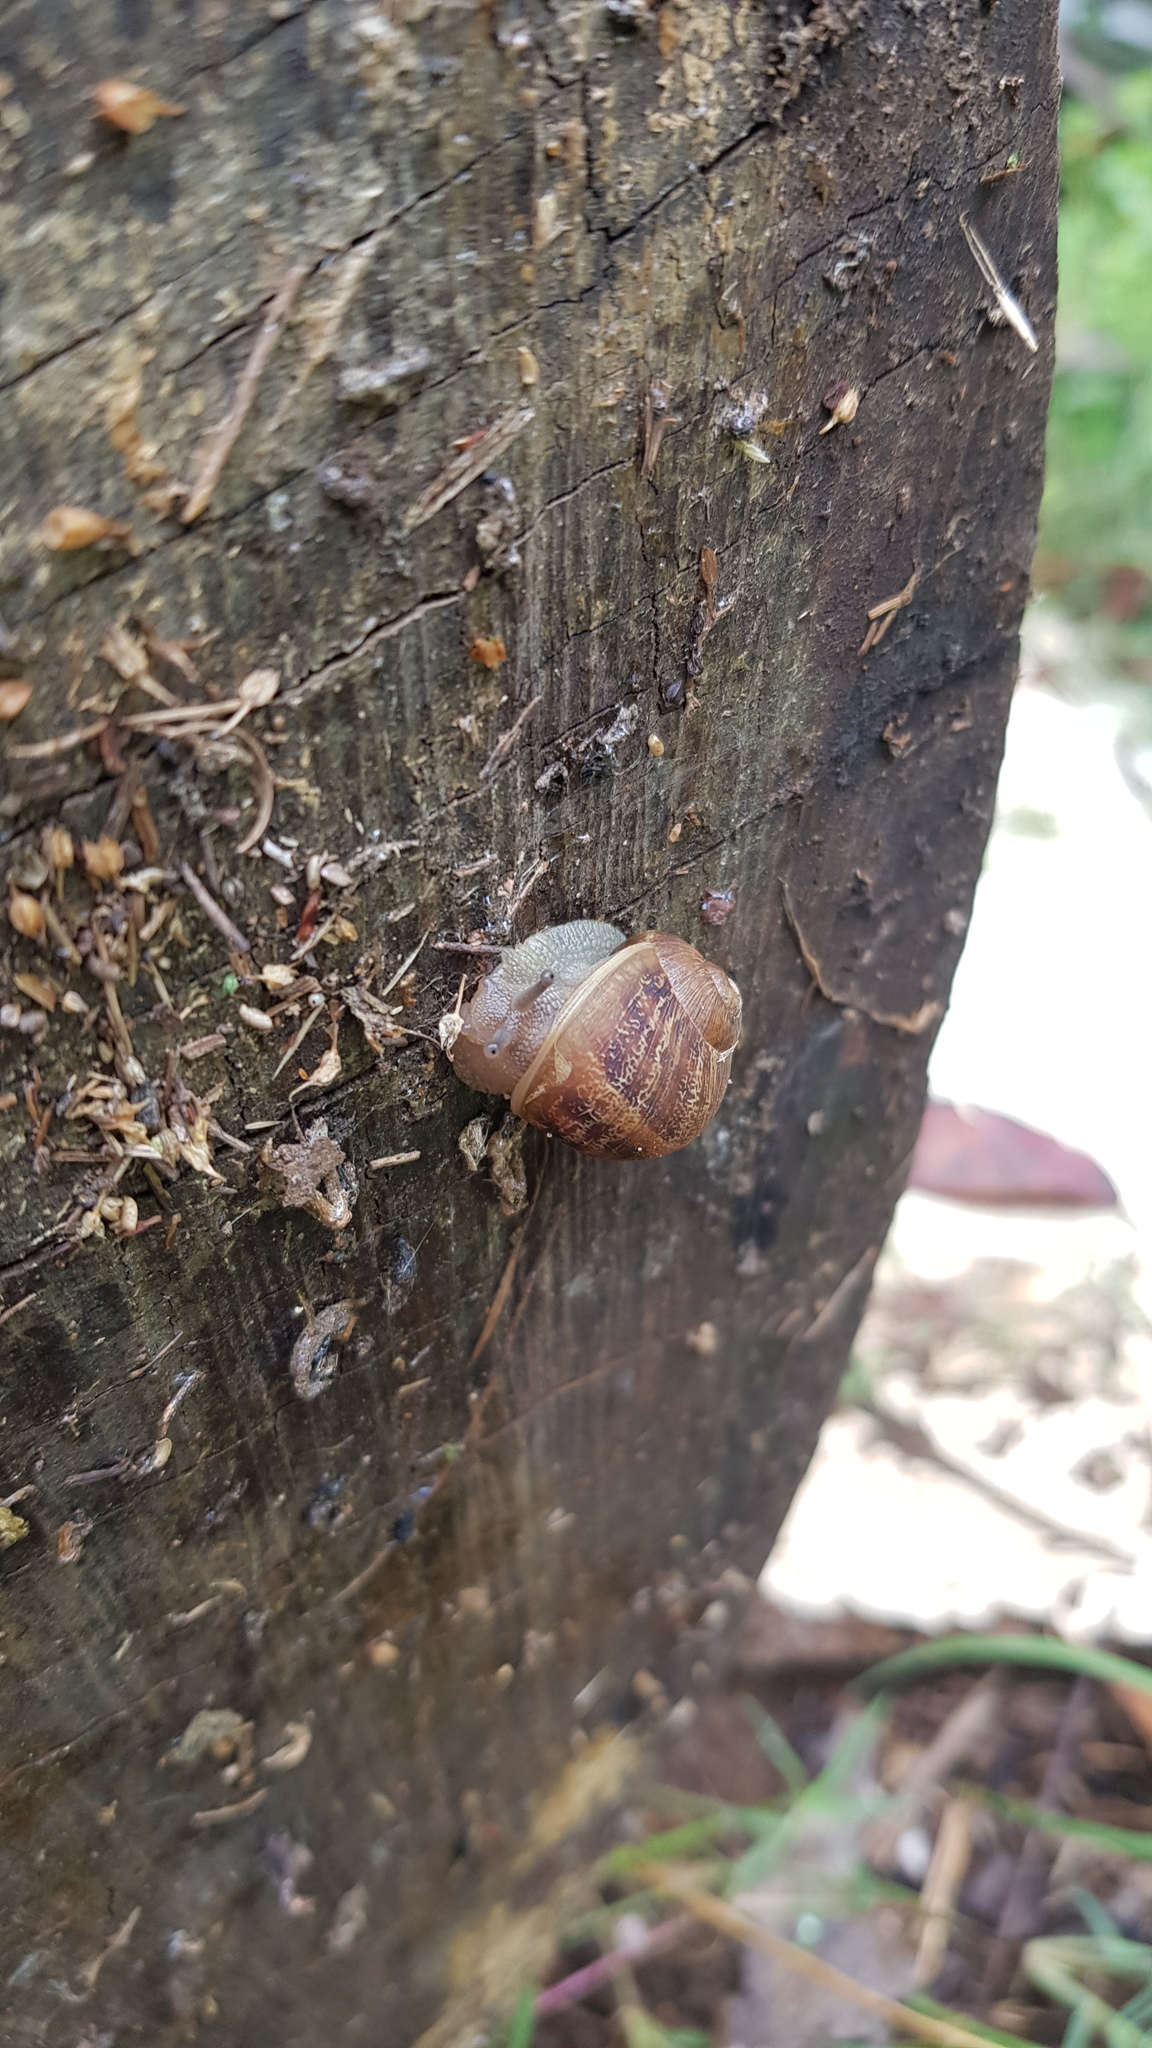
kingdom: Animalia
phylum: Mollusca
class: Gastropoda
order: Stylommatophora
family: Helicidae
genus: Cornu
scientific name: Cornu aspersum
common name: Brown garden snail
